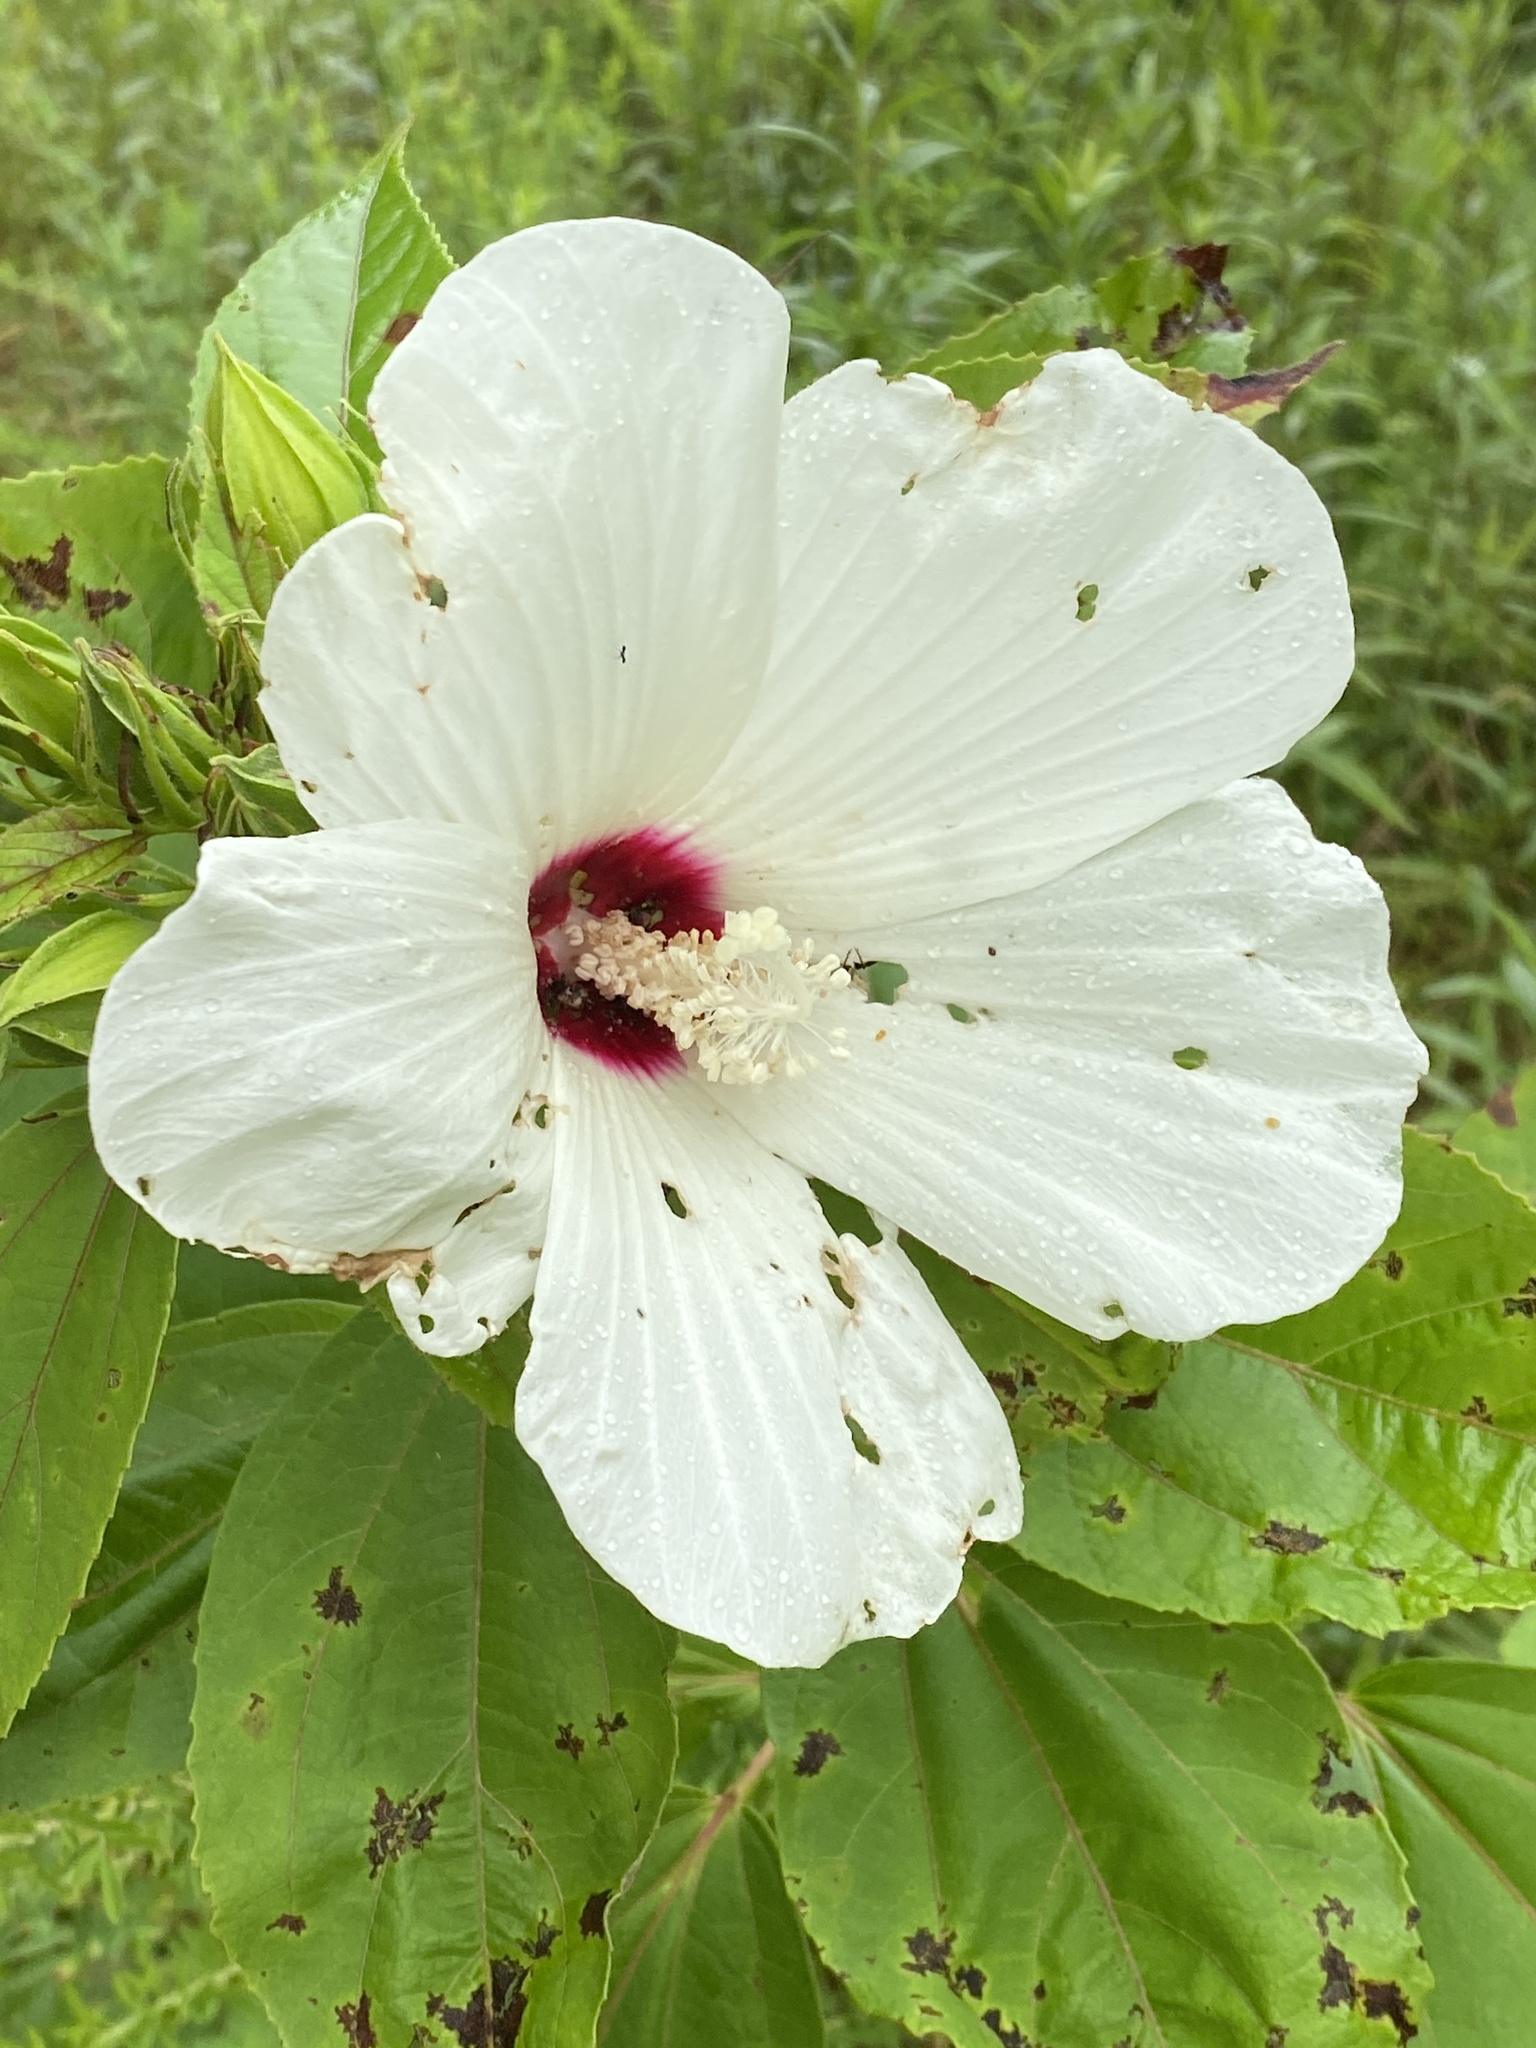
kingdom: Plantae
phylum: Tracheophyta
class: Magnoliopsida
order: Malvales
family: Malvaceae
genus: Hibiscus
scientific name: Hibiscus moscheutos
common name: Common rose-mallow
